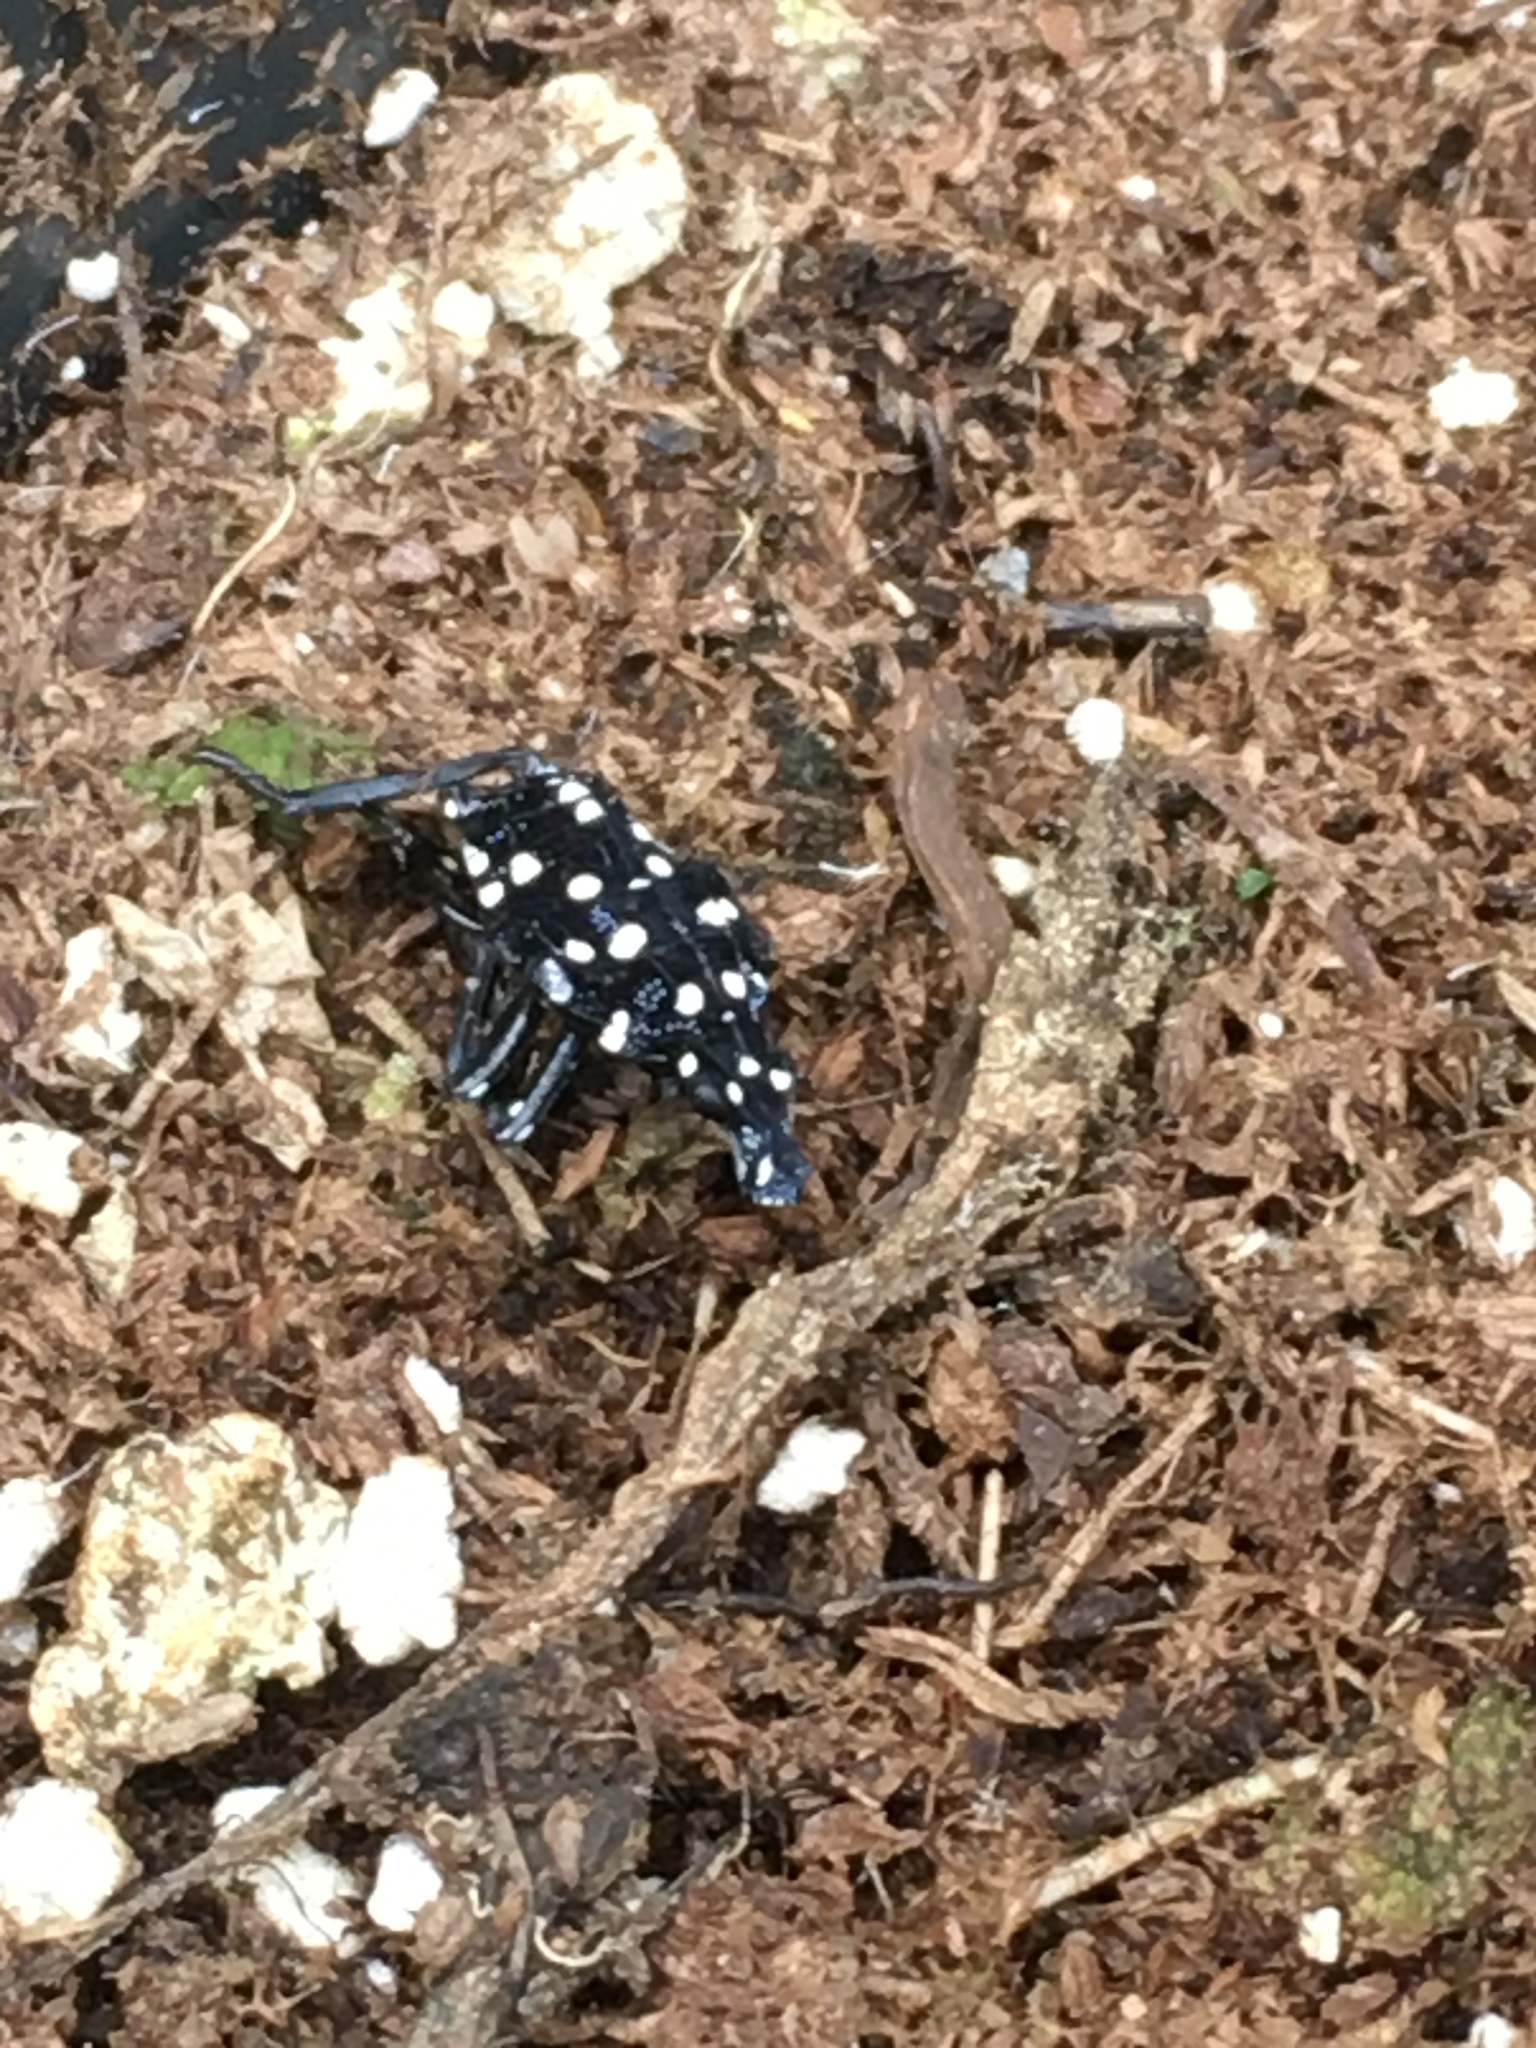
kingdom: Animalia
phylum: Arthropoda
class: Insecta
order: Hemiptera
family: Fulgoridae
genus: Lycorma
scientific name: Lycorma delicatula
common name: Spotted lanternfly
